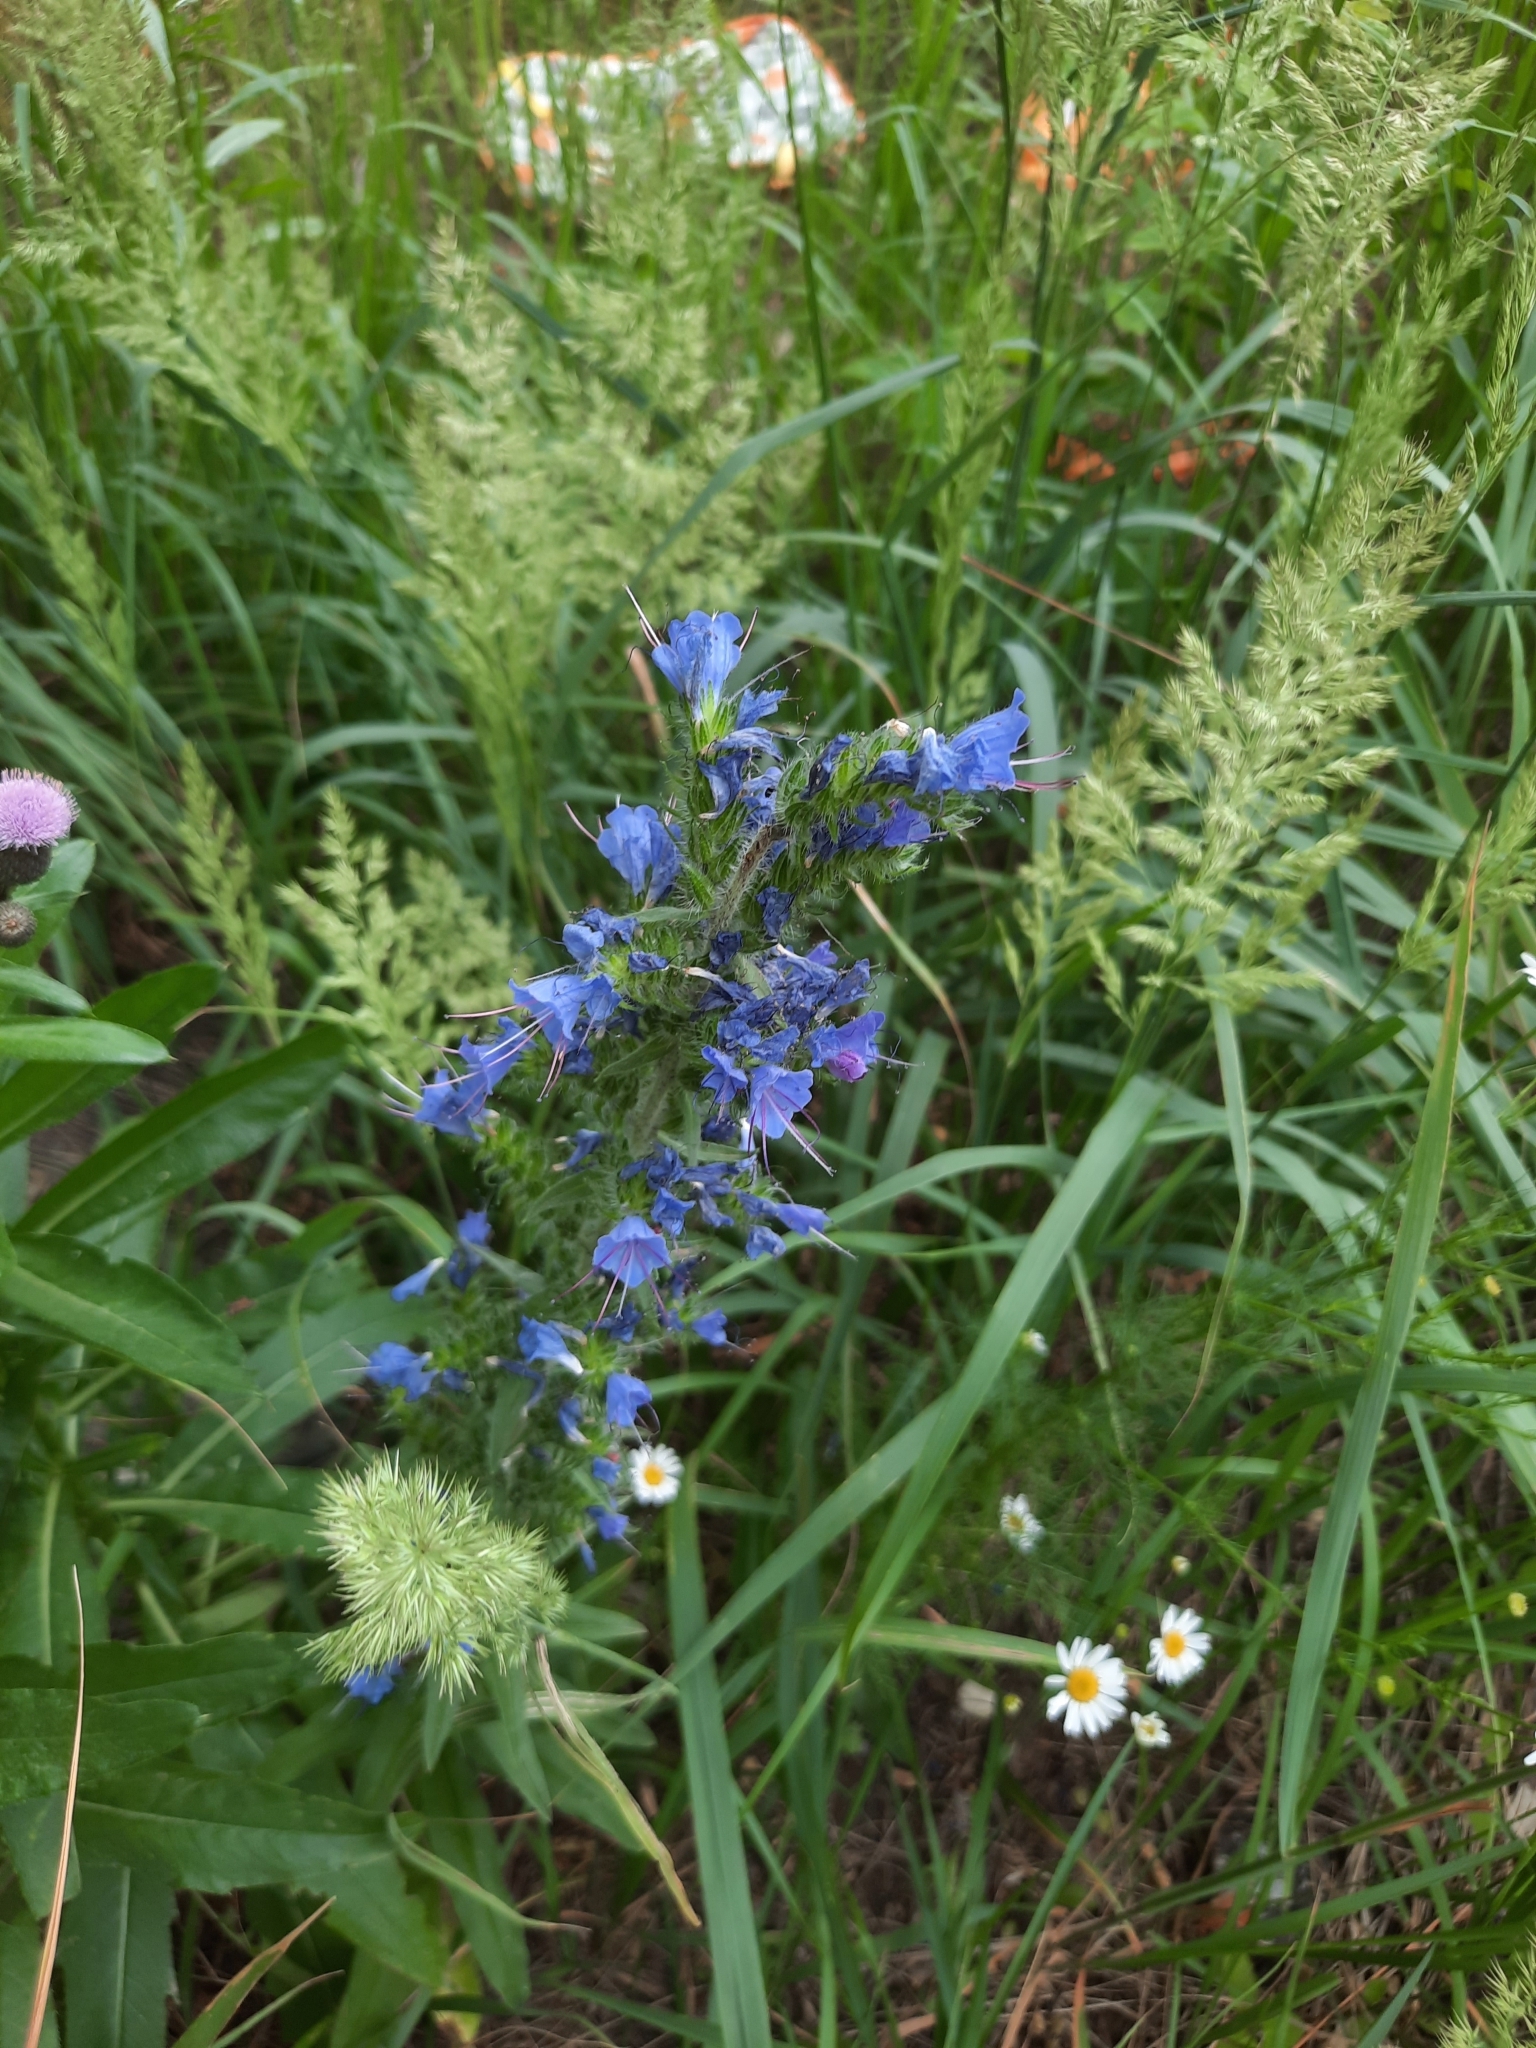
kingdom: Plantae
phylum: Tracheophyta
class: Magnoliopsida
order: Boraginales
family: Boraginaceae
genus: Echium
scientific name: Echium vulgare
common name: Common viper's bugloss
